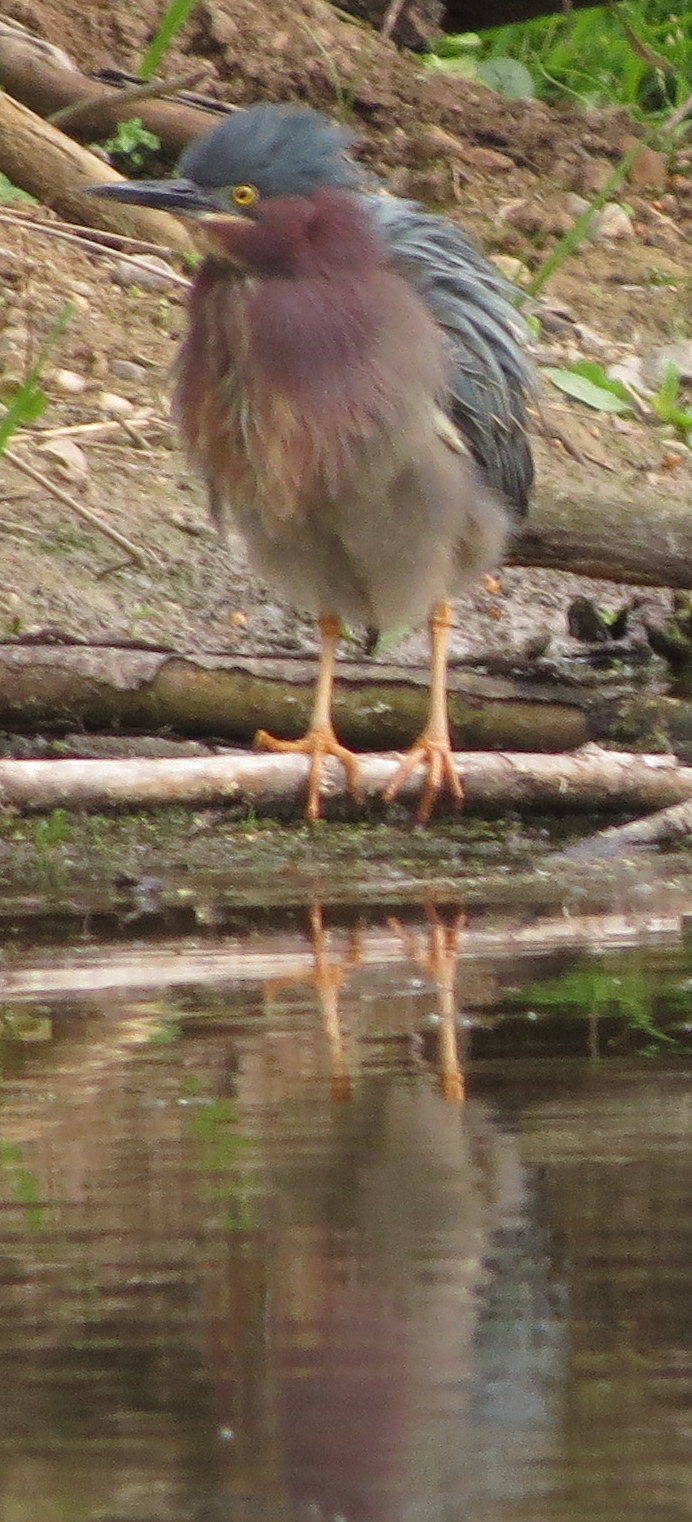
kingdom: Animalia
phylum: Chordata
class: Aves
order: Pelecaniformes
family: Ardeidae
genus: Butorides
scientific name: Butorides virescens
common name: Green heron
